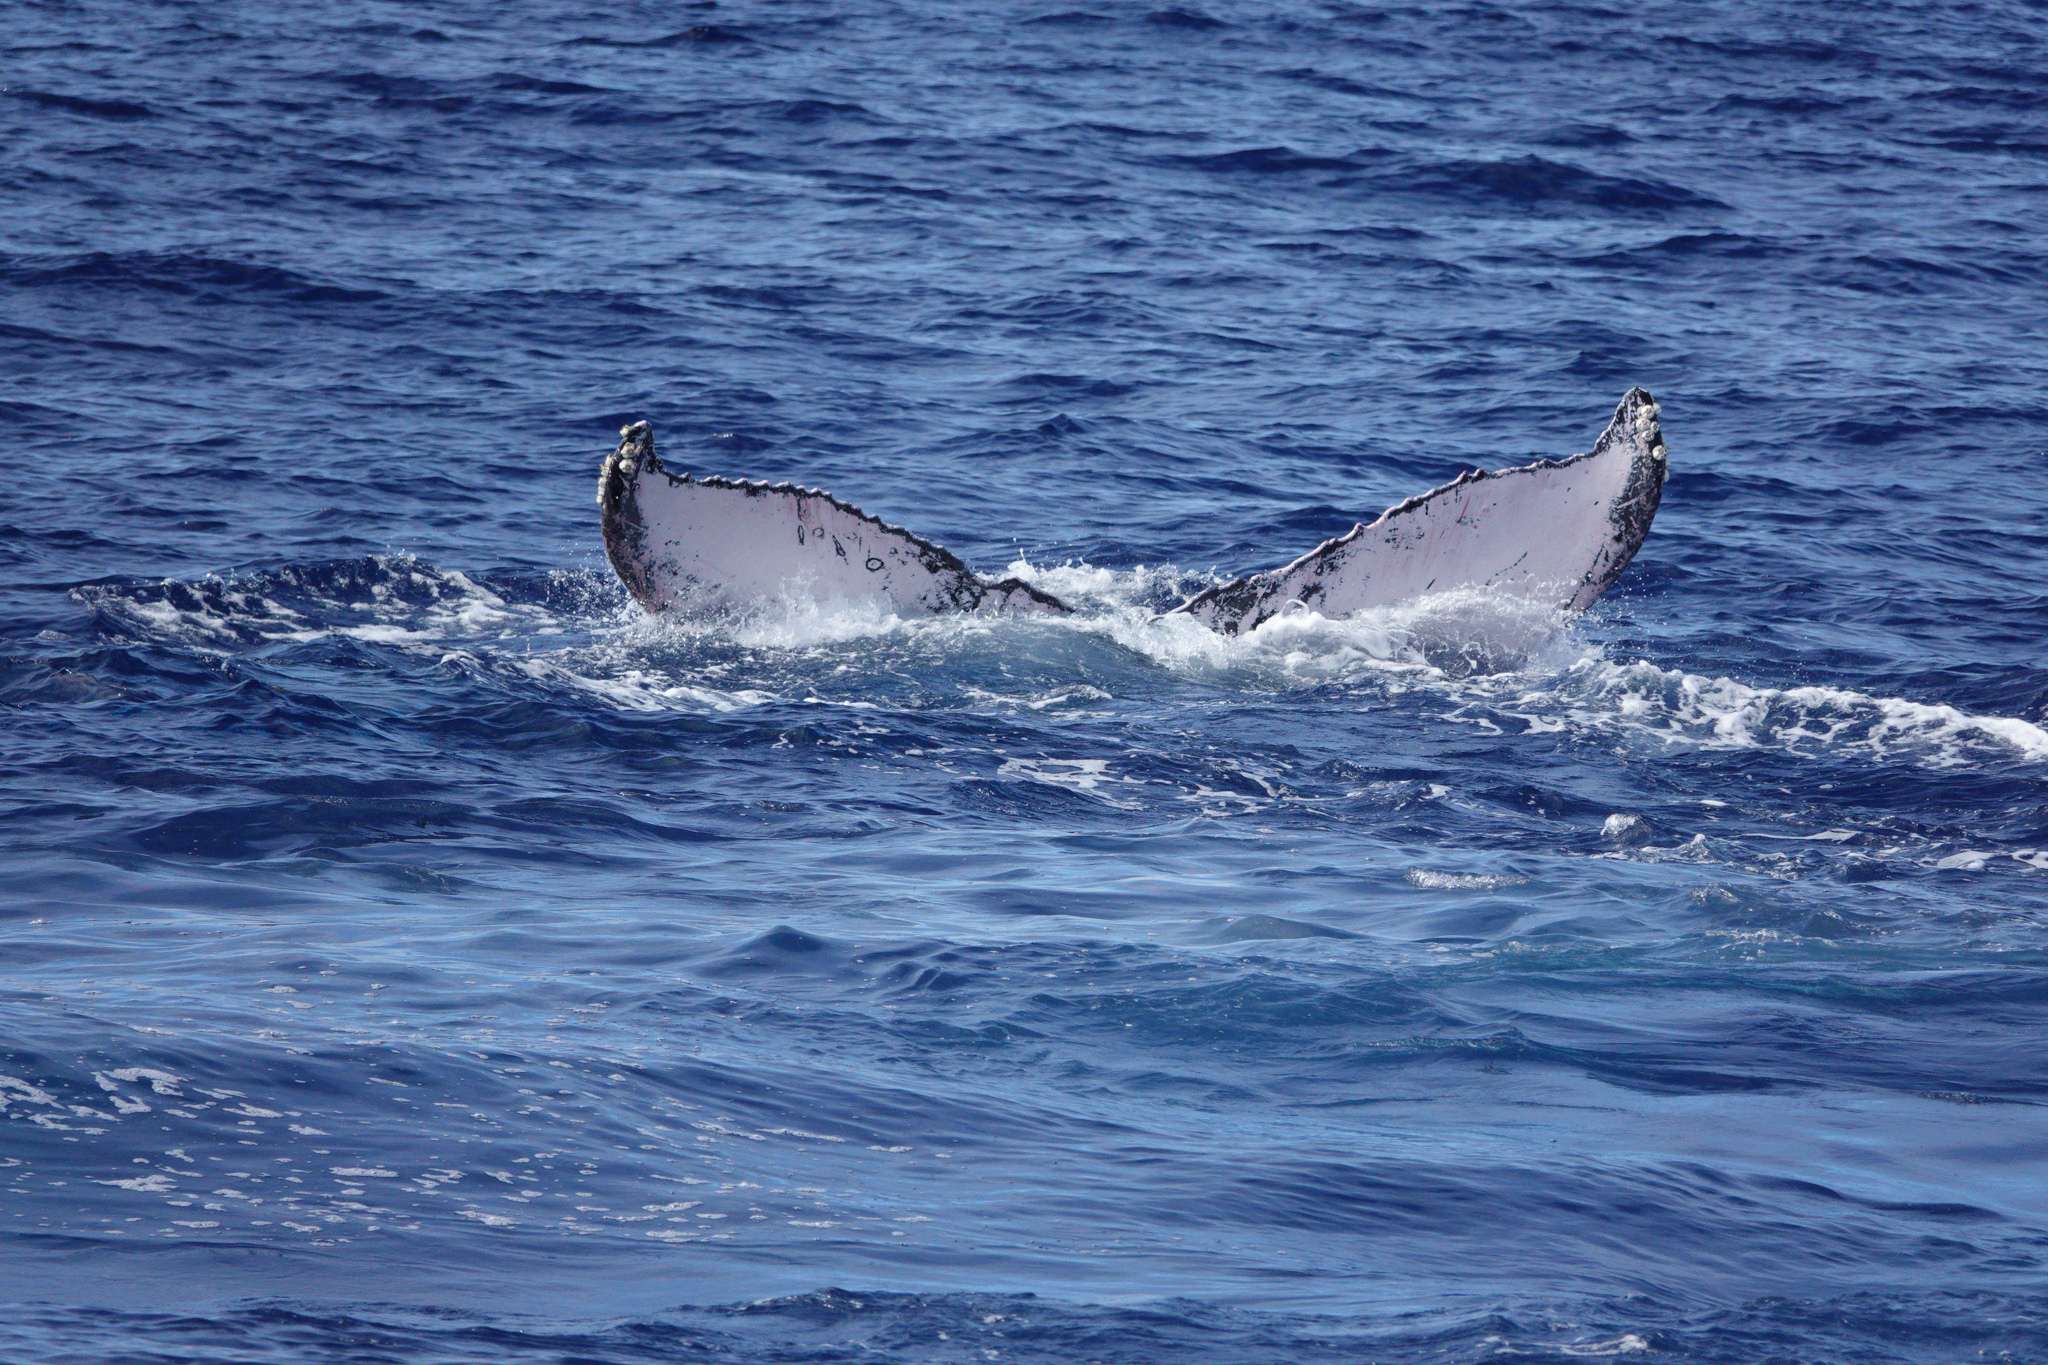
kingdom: Animalia
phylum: Chordata
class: Mammalia
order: Cetacea
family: Balaenopteridae
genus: Megaptera
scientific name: Megaptera novaeangliae
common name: Humpback whale
